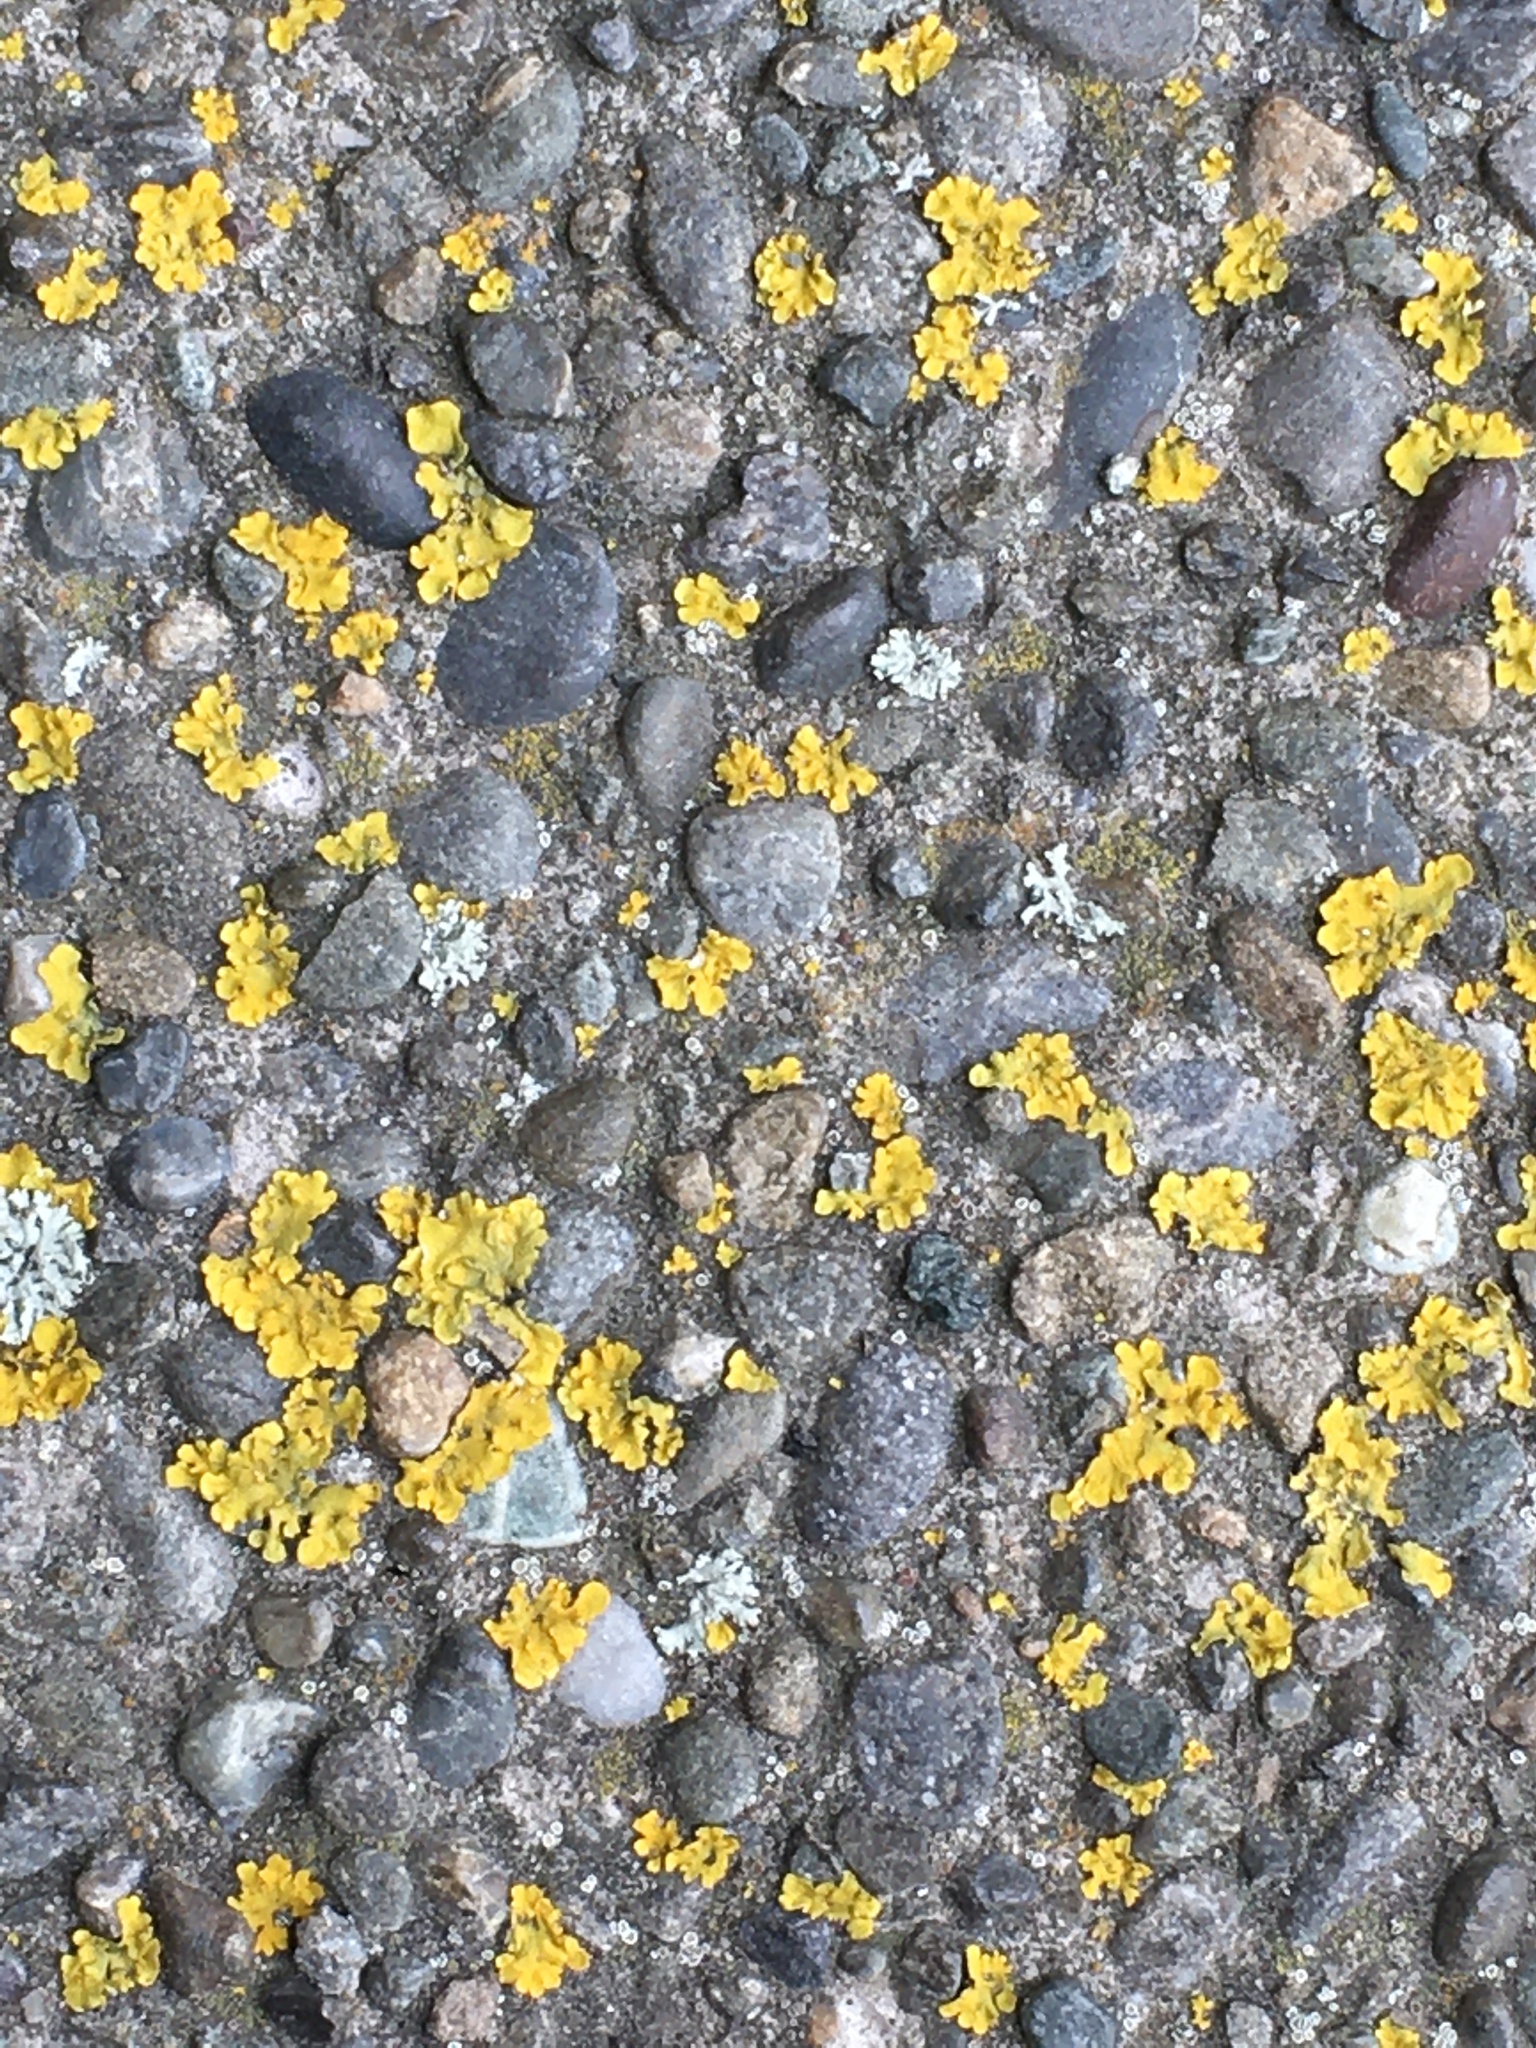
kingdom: Fungi
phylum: Ascomycota
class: Lecanoromycetes
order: Teloschistales
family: Teloschistaceae
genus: Xanthoria
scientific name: Xanthoria parietina
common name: Common orange lichen
